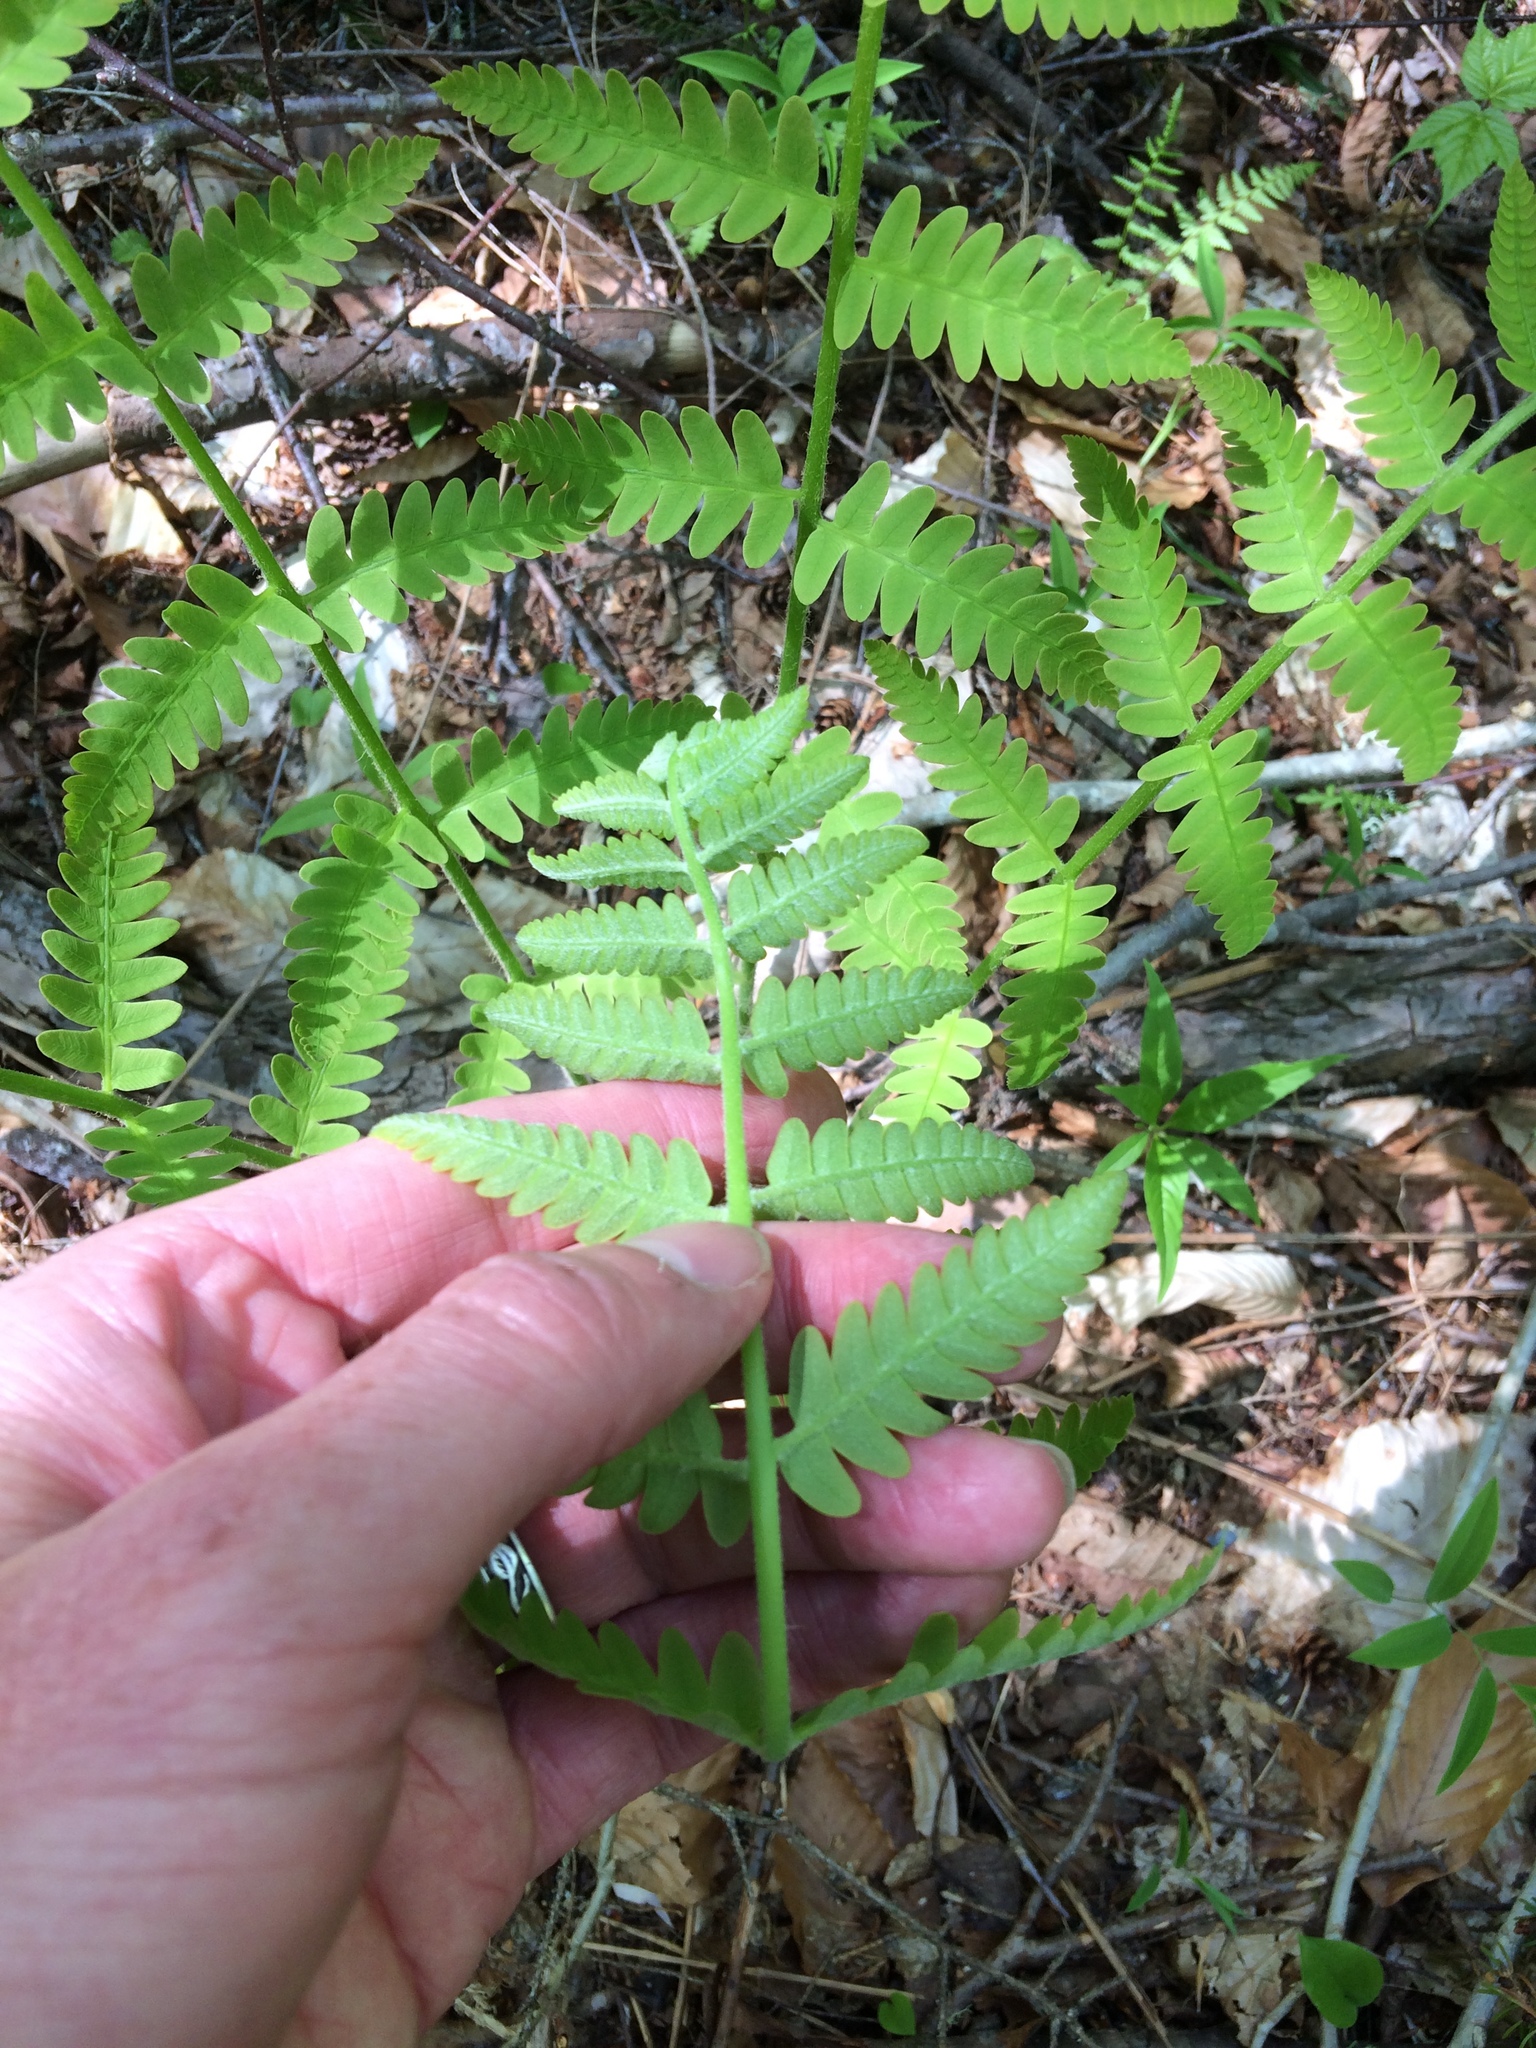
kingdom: Plantae
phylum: Tracheophyta
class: Polypodiopsida
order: Osmundales
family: Osmundaceae
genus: Claytosmunda
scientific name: Claytosmunda claytoniana
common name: Clayton's fern
